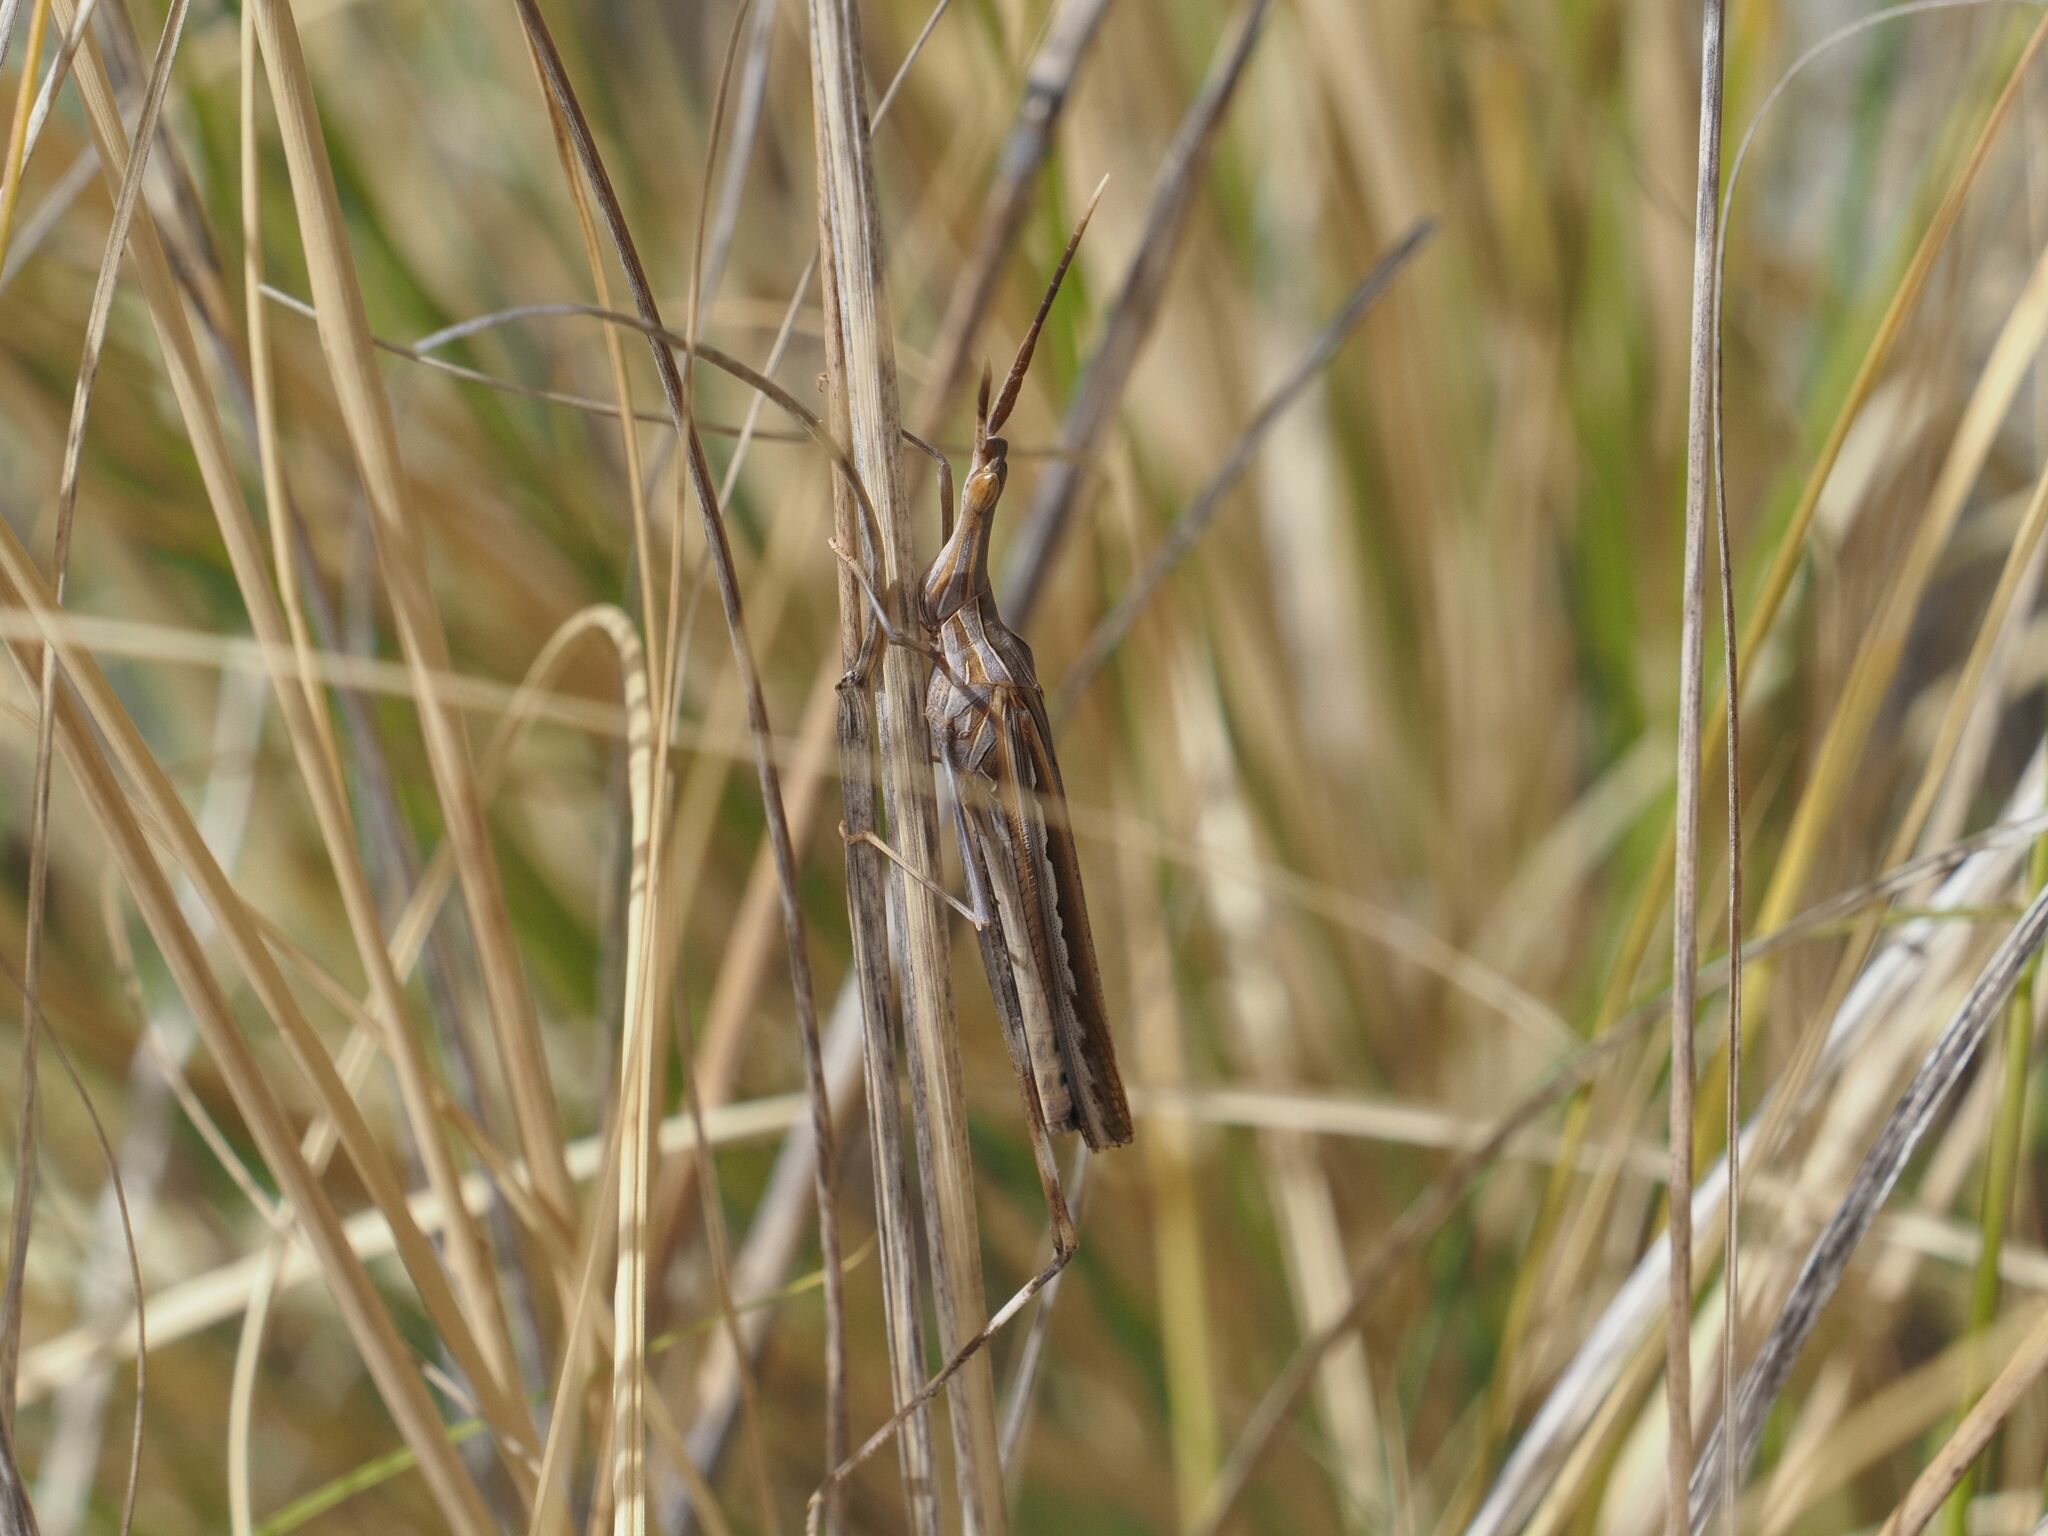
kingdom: Animalia
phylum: Arthropoda
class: Insecta
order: Orthoptera
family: Acrididae
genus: Truxalis
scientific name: Truxalis nasuta
